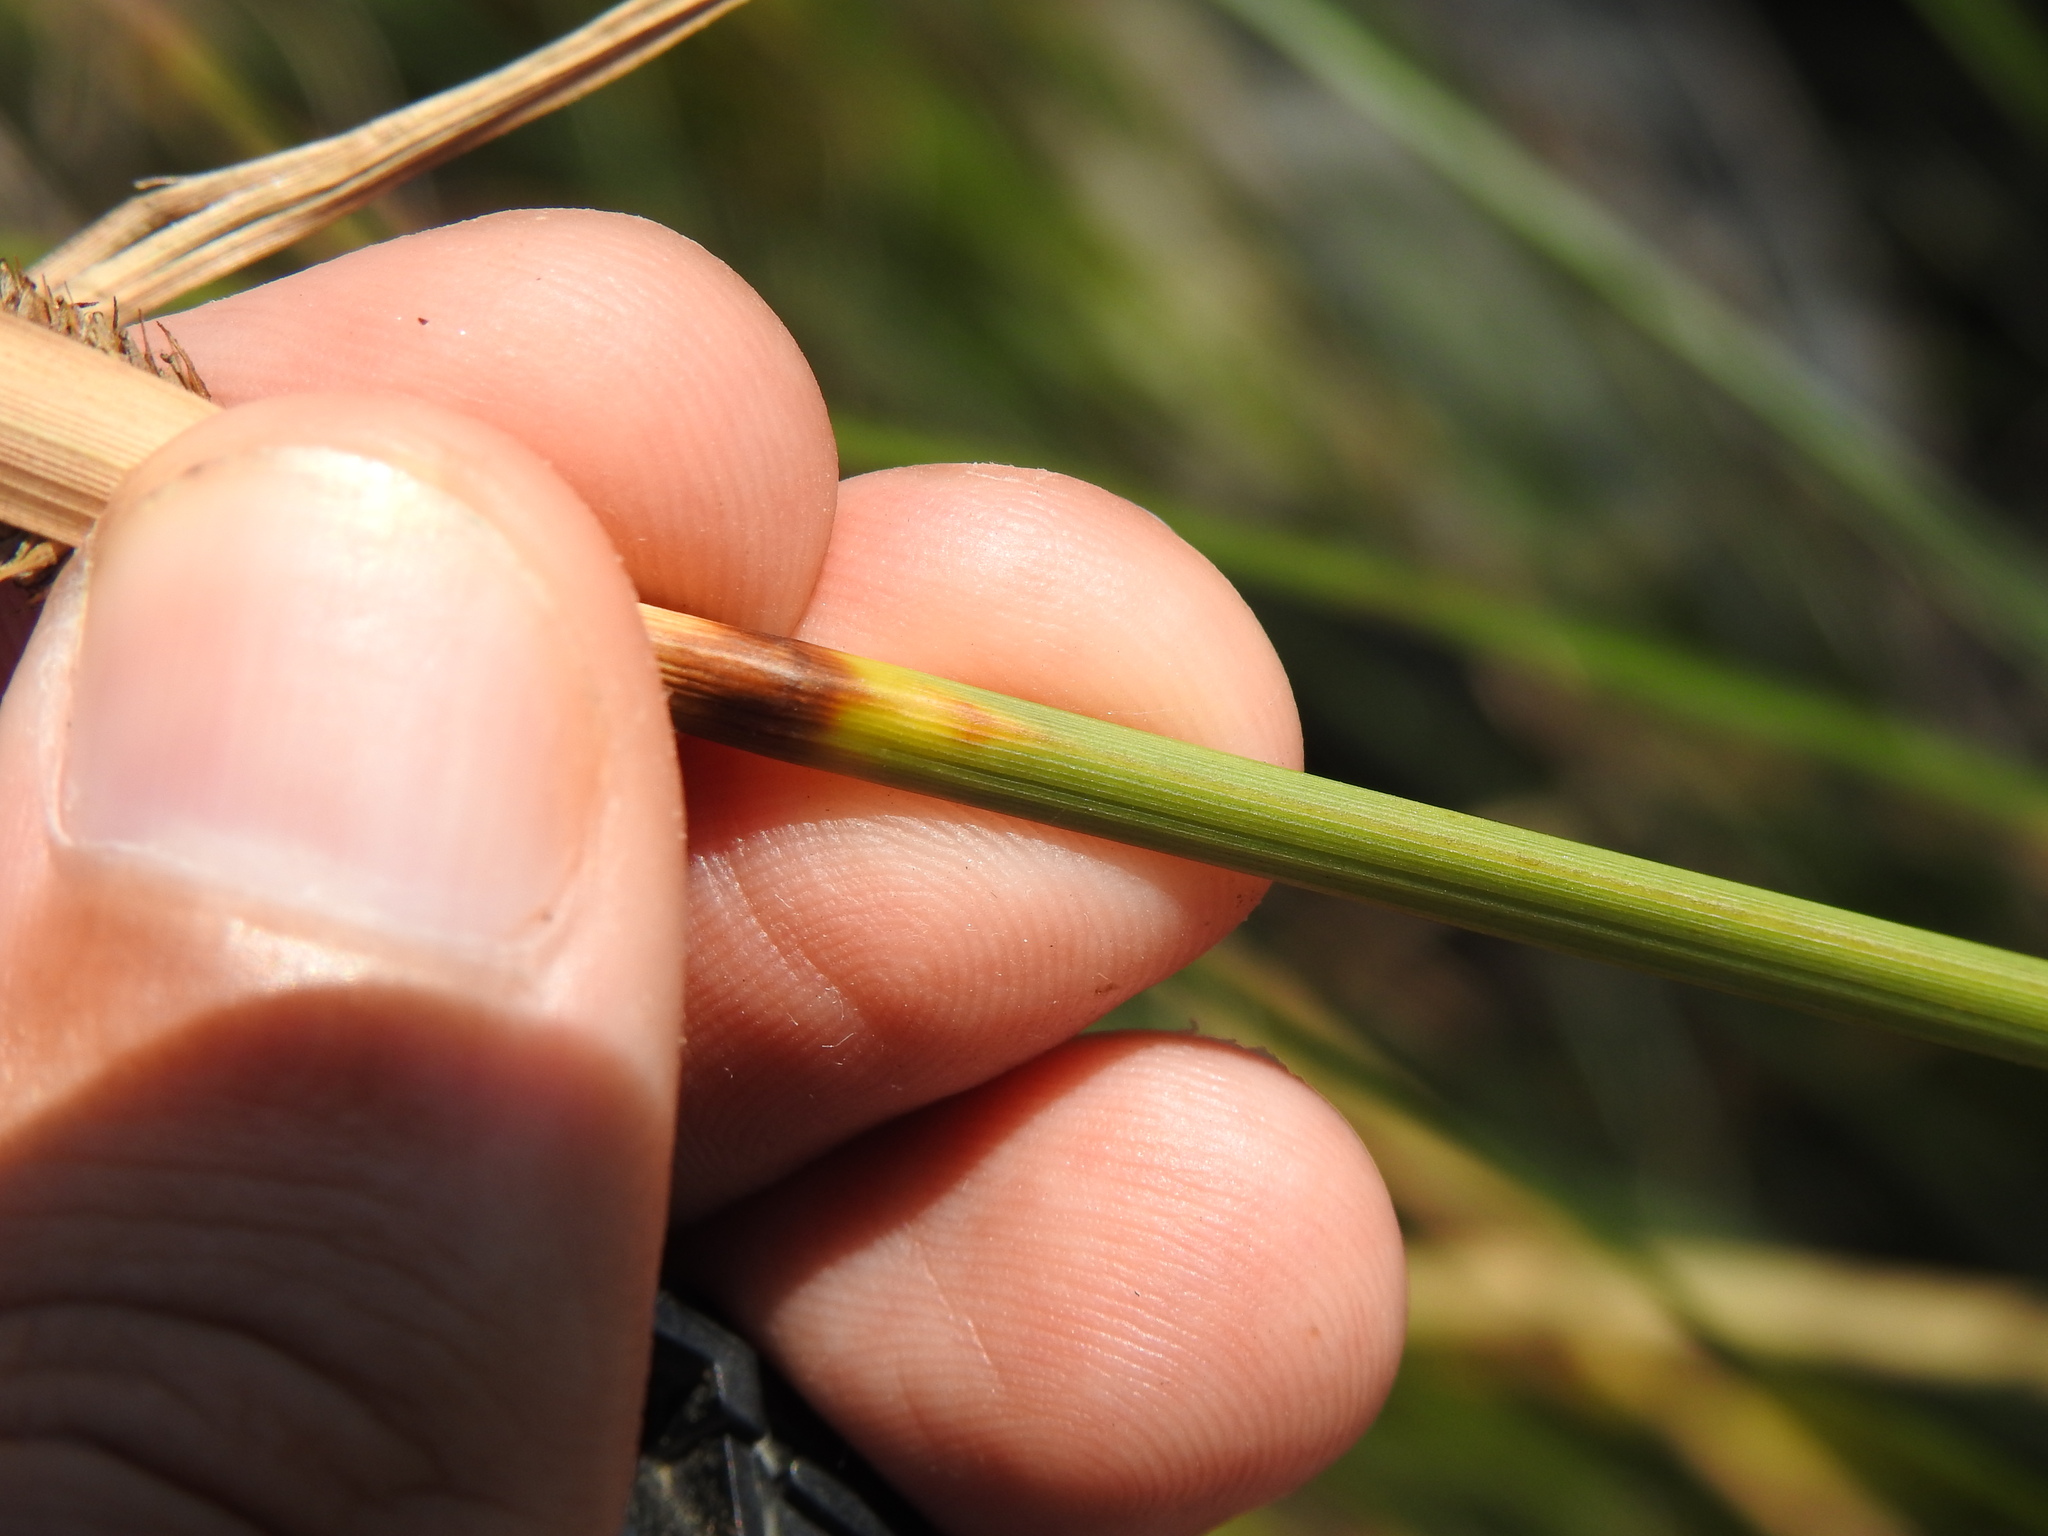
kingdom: Plantae
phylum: Tracheophyta
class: Liliopsida
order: Poales
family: Cyperaceae
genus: Carex
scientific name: Carex hispida
